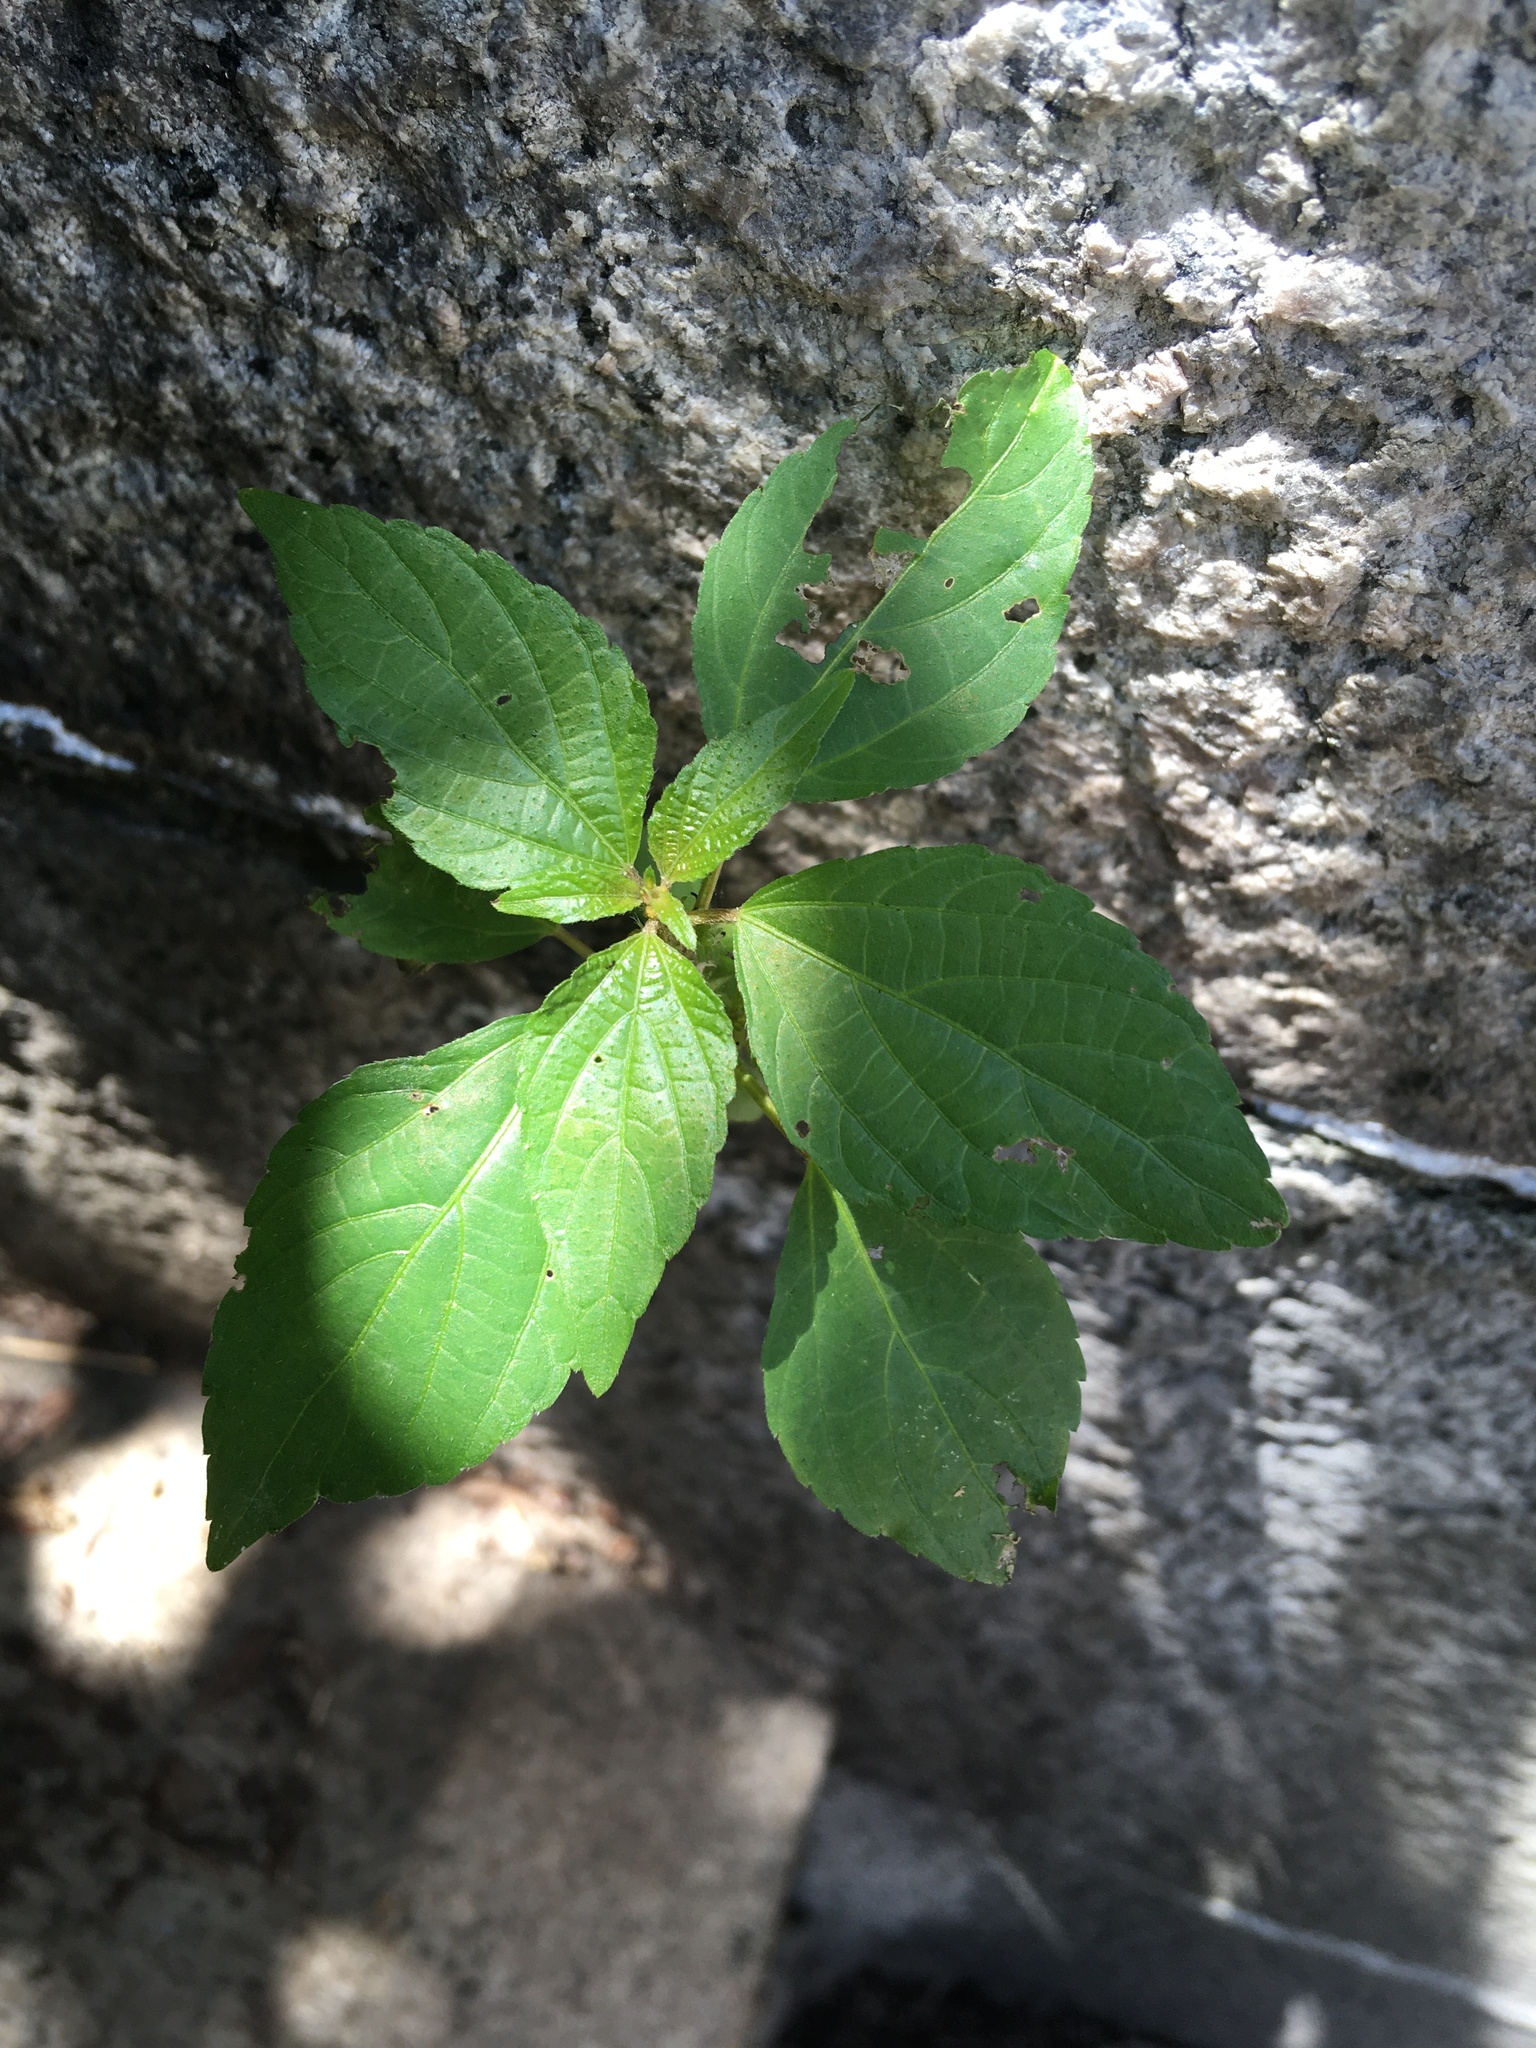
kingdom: Plantae
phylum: Tracheophyta
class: Magnoliopsida
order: Malpighiales
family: Euphorbiaceae
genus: Acalypha
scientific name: Acalypha rhomboidea
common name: Rhombic copperleaf
